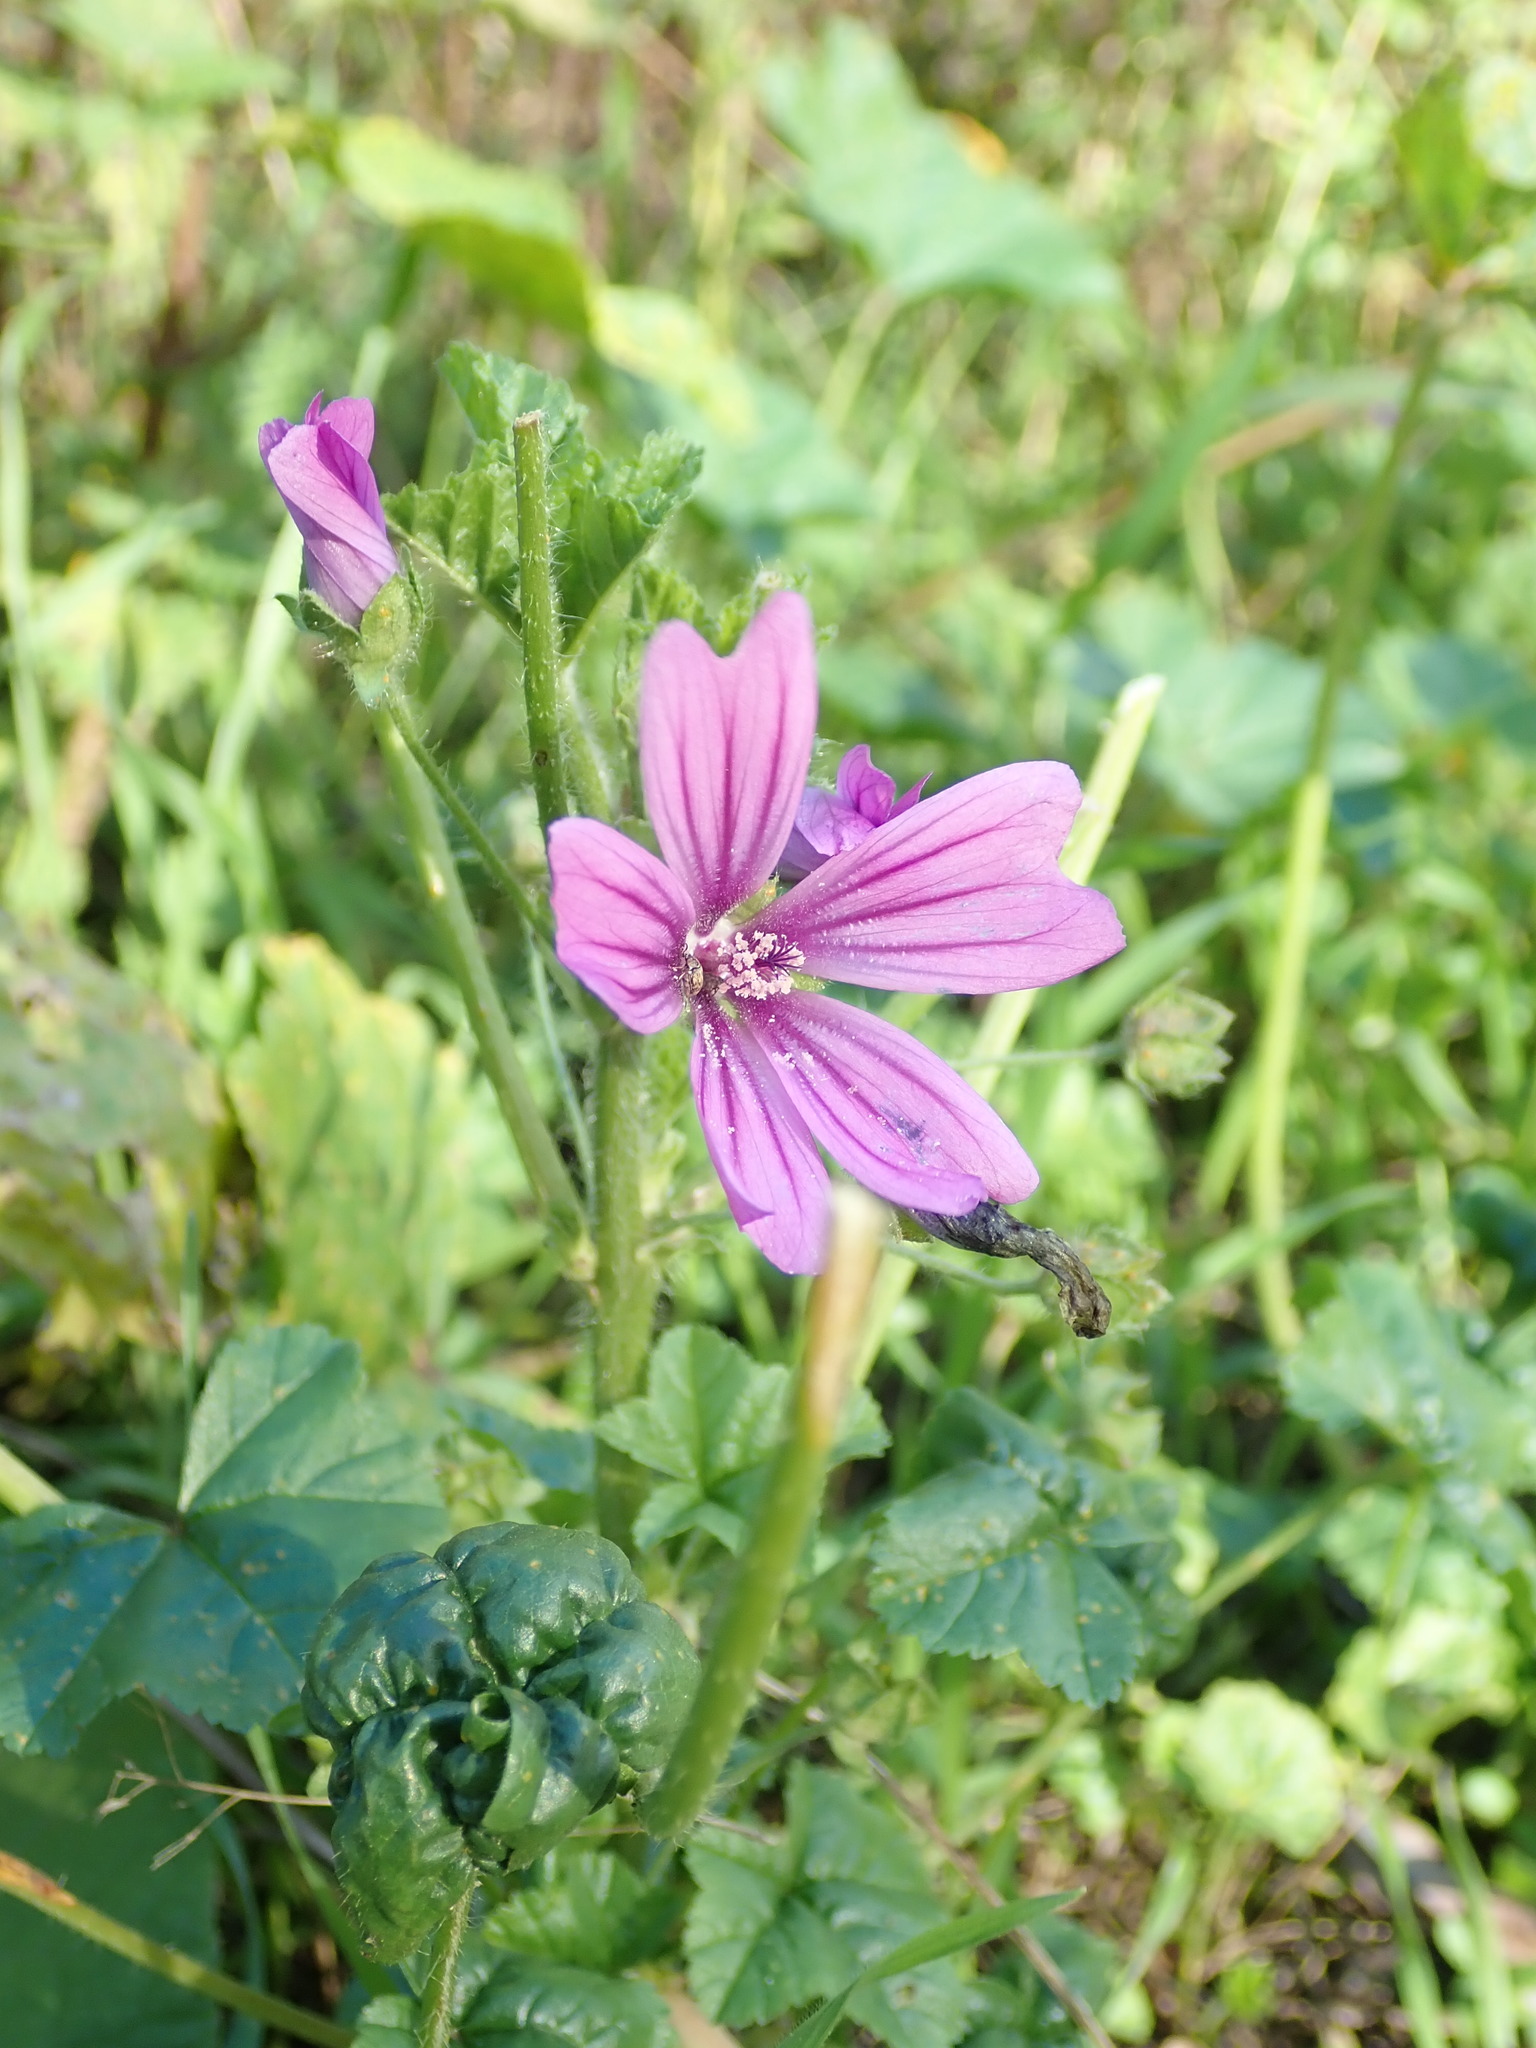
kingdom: Plantae
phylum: Tracheophyta
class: Magnoliopsida
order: Malvales
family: Malvaceae
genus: Malva
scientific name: Malva sylvestris
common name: Common mallow
